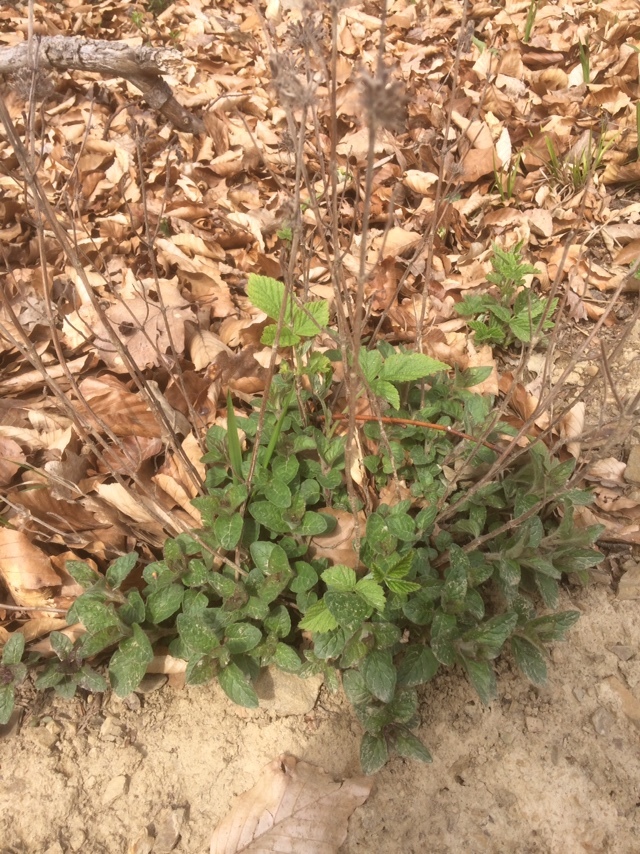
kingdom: Plantae
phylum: Tracheophyta
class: Magnoliopsida
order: Lamiales
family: Lamiaceae
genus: Clinopodium
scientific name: Clinopodium vulgare
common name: Wild basil
